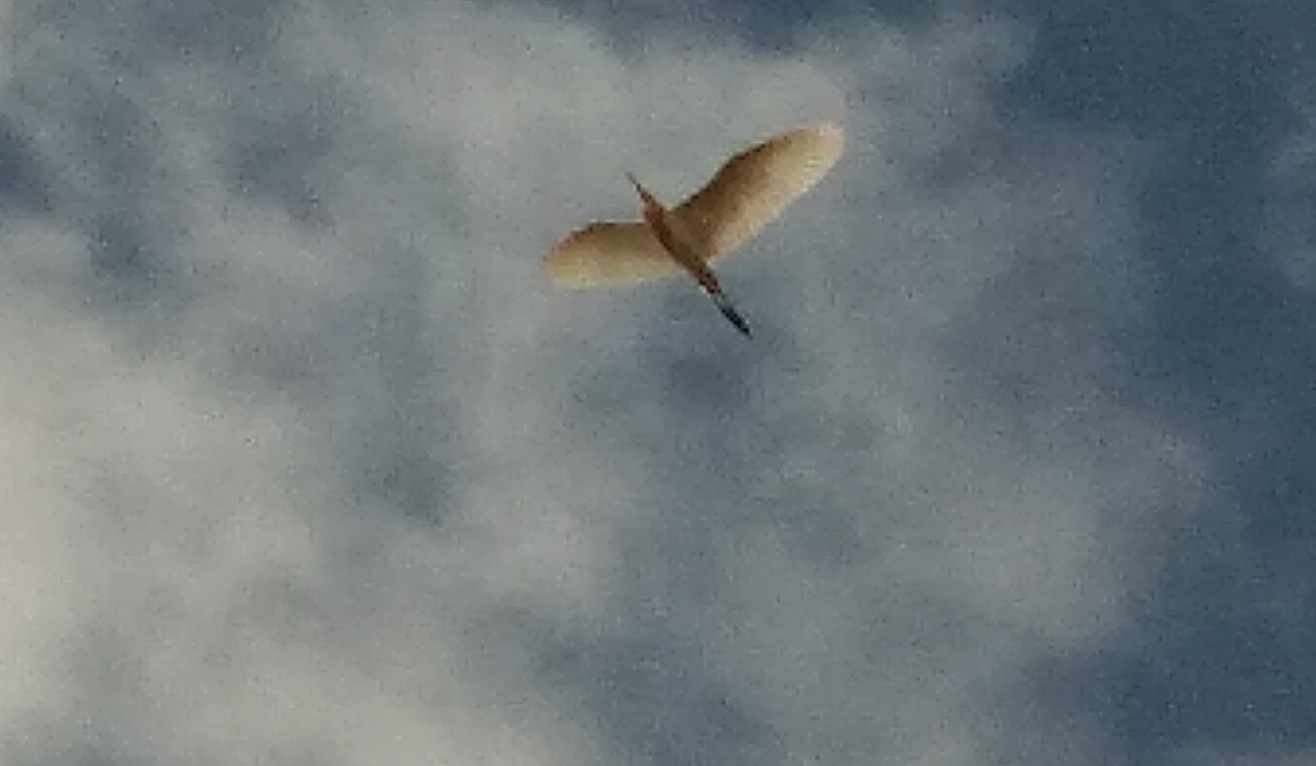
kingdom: Animalia
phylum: Chordata
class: Aves
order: Pelecaniformes
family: Ardeidae
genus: Ardeola
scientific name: Ardeola grayii
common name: Indian pond heron
